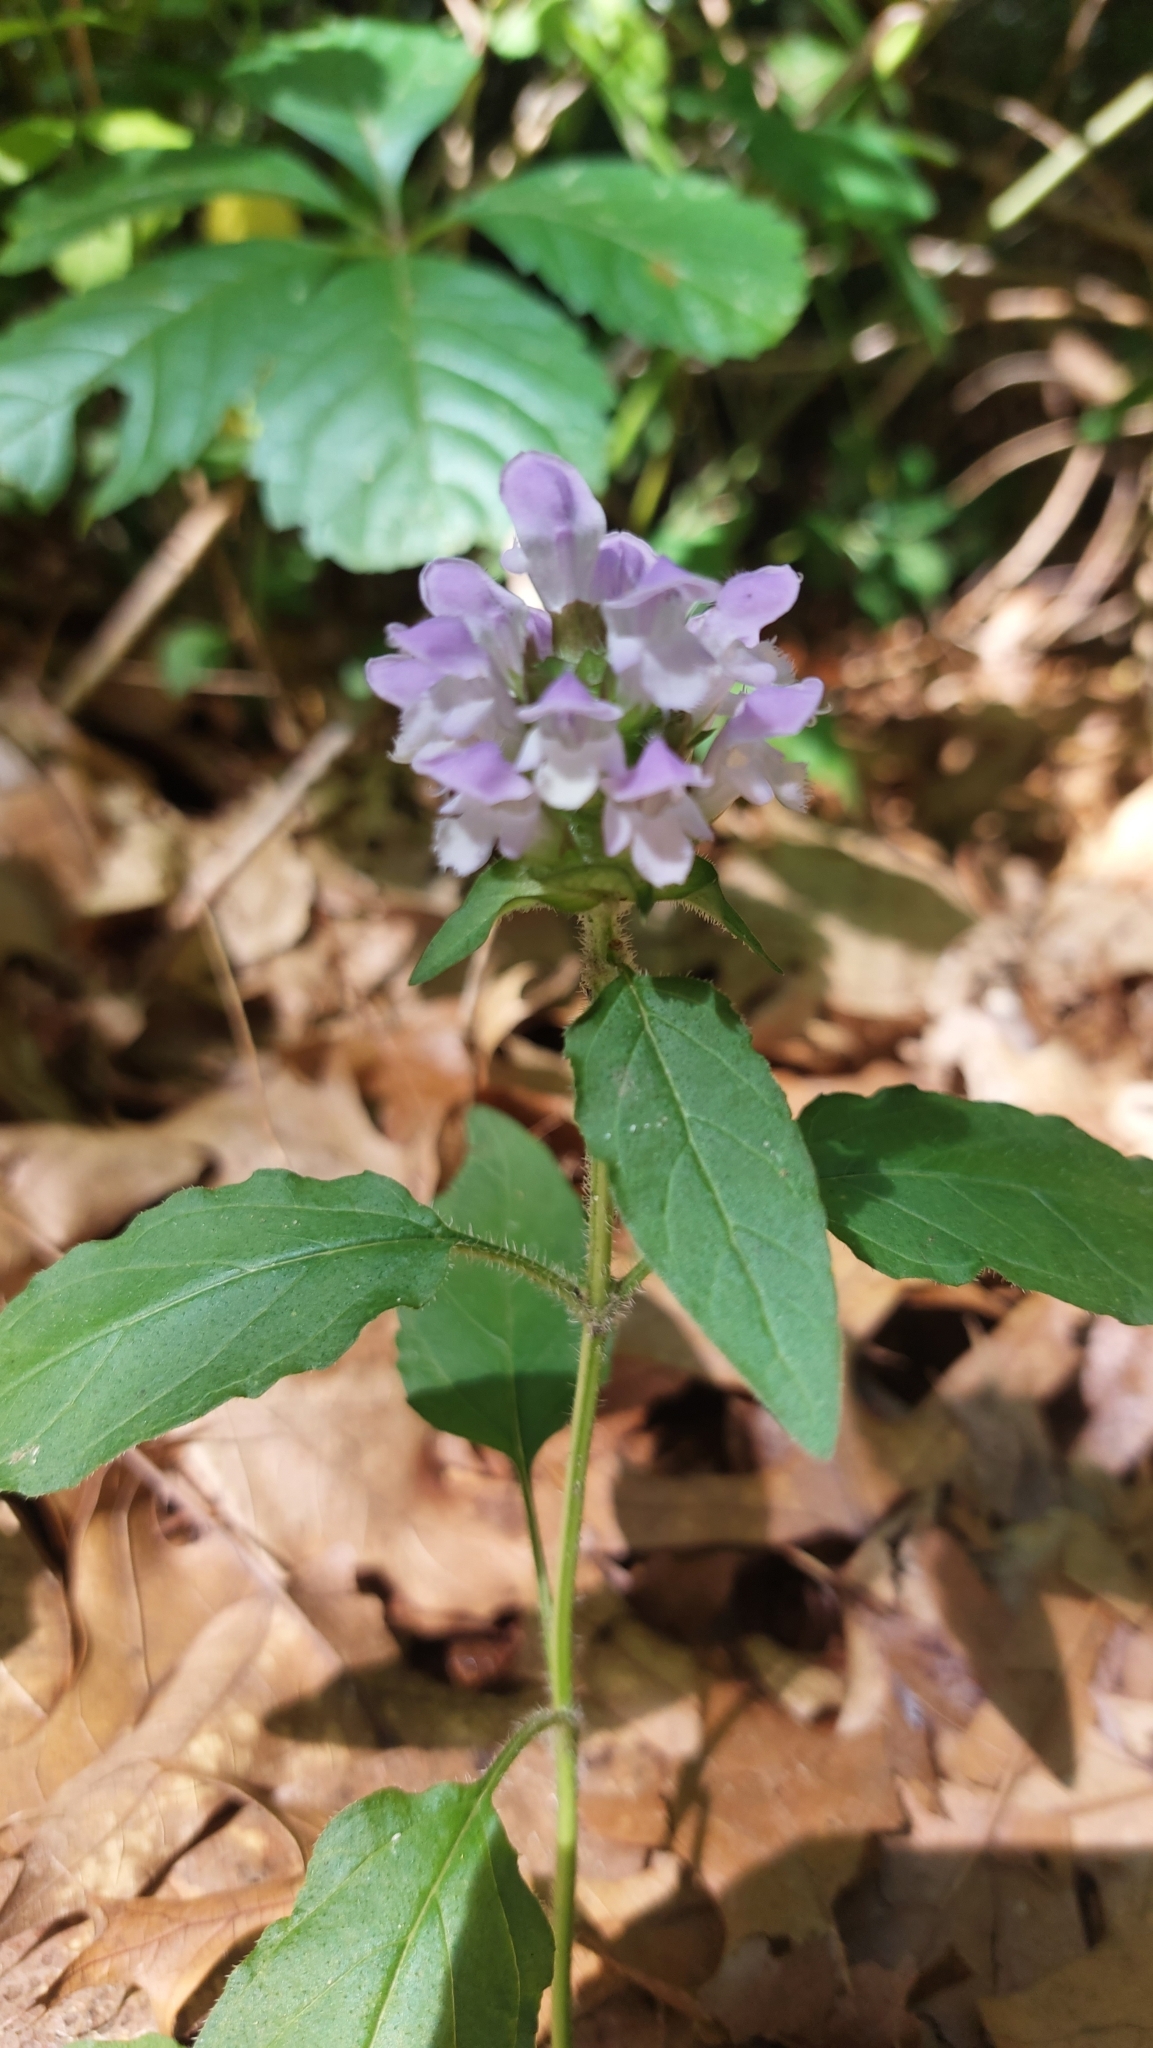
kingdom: Plantae
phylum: Tracheophyta
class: Magnoliopsida
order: Lamiales
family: Lamiaceae
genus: Prunella
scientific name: Prunella vulgaris
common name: Heal-all
